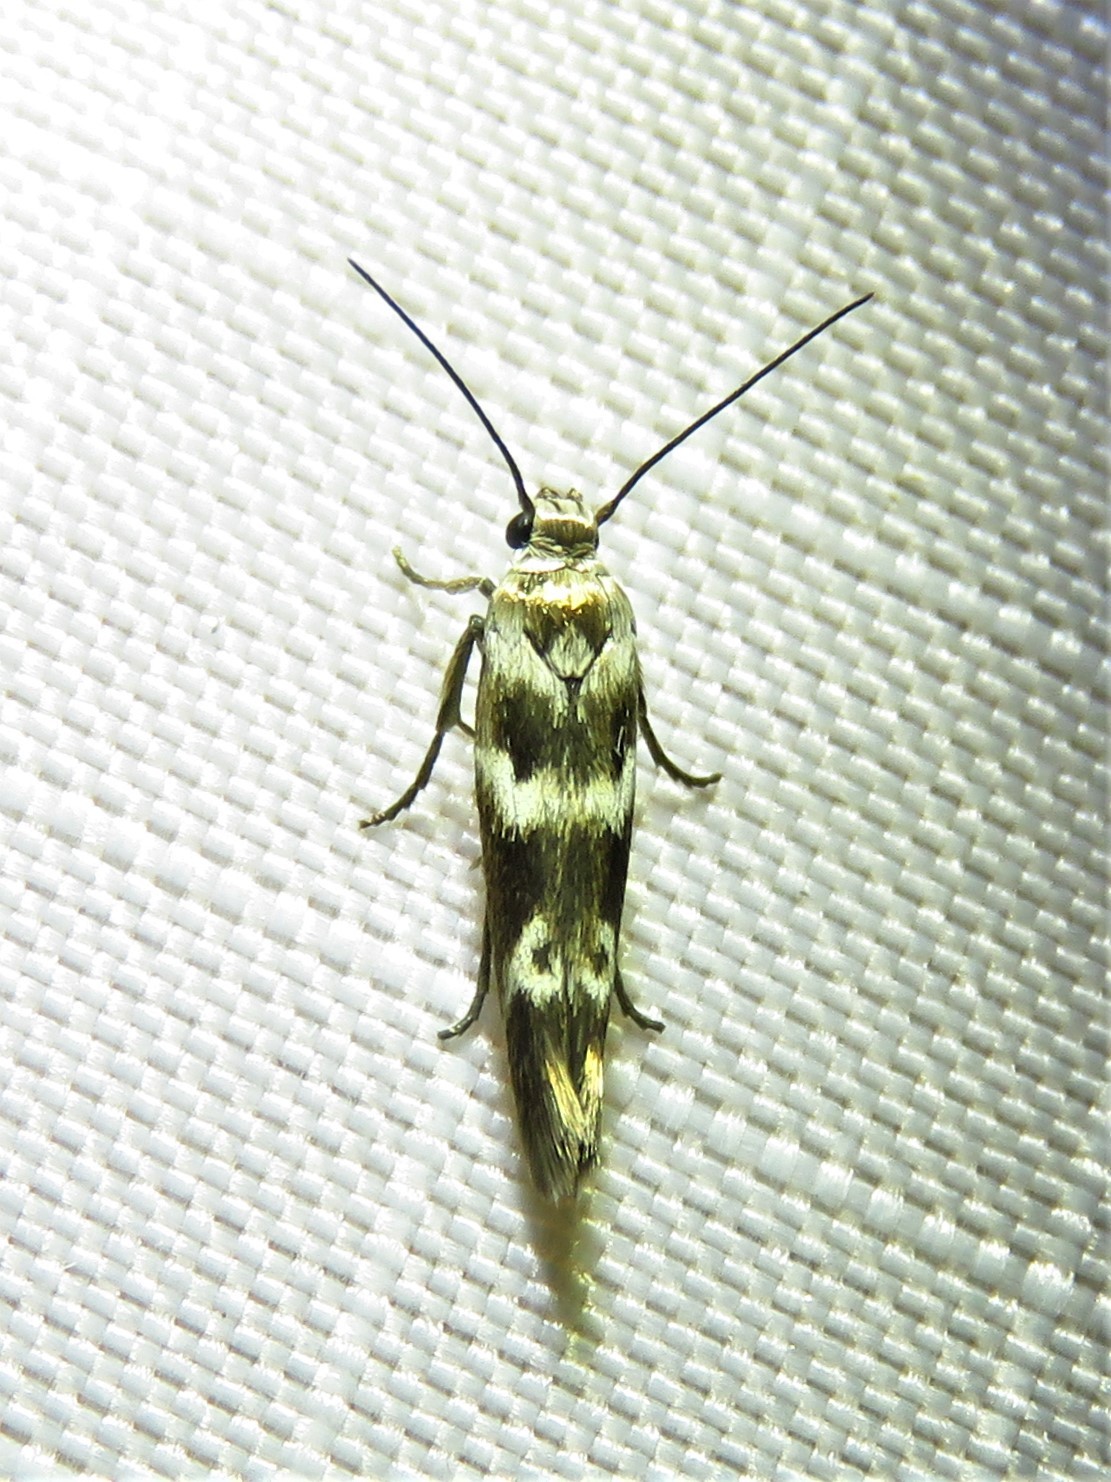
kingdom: Animalia
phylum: Arthropoda
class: Insecta
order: Lepidoptera
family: Scythrididae
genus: Scythris
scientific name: Scythris trivinctella
